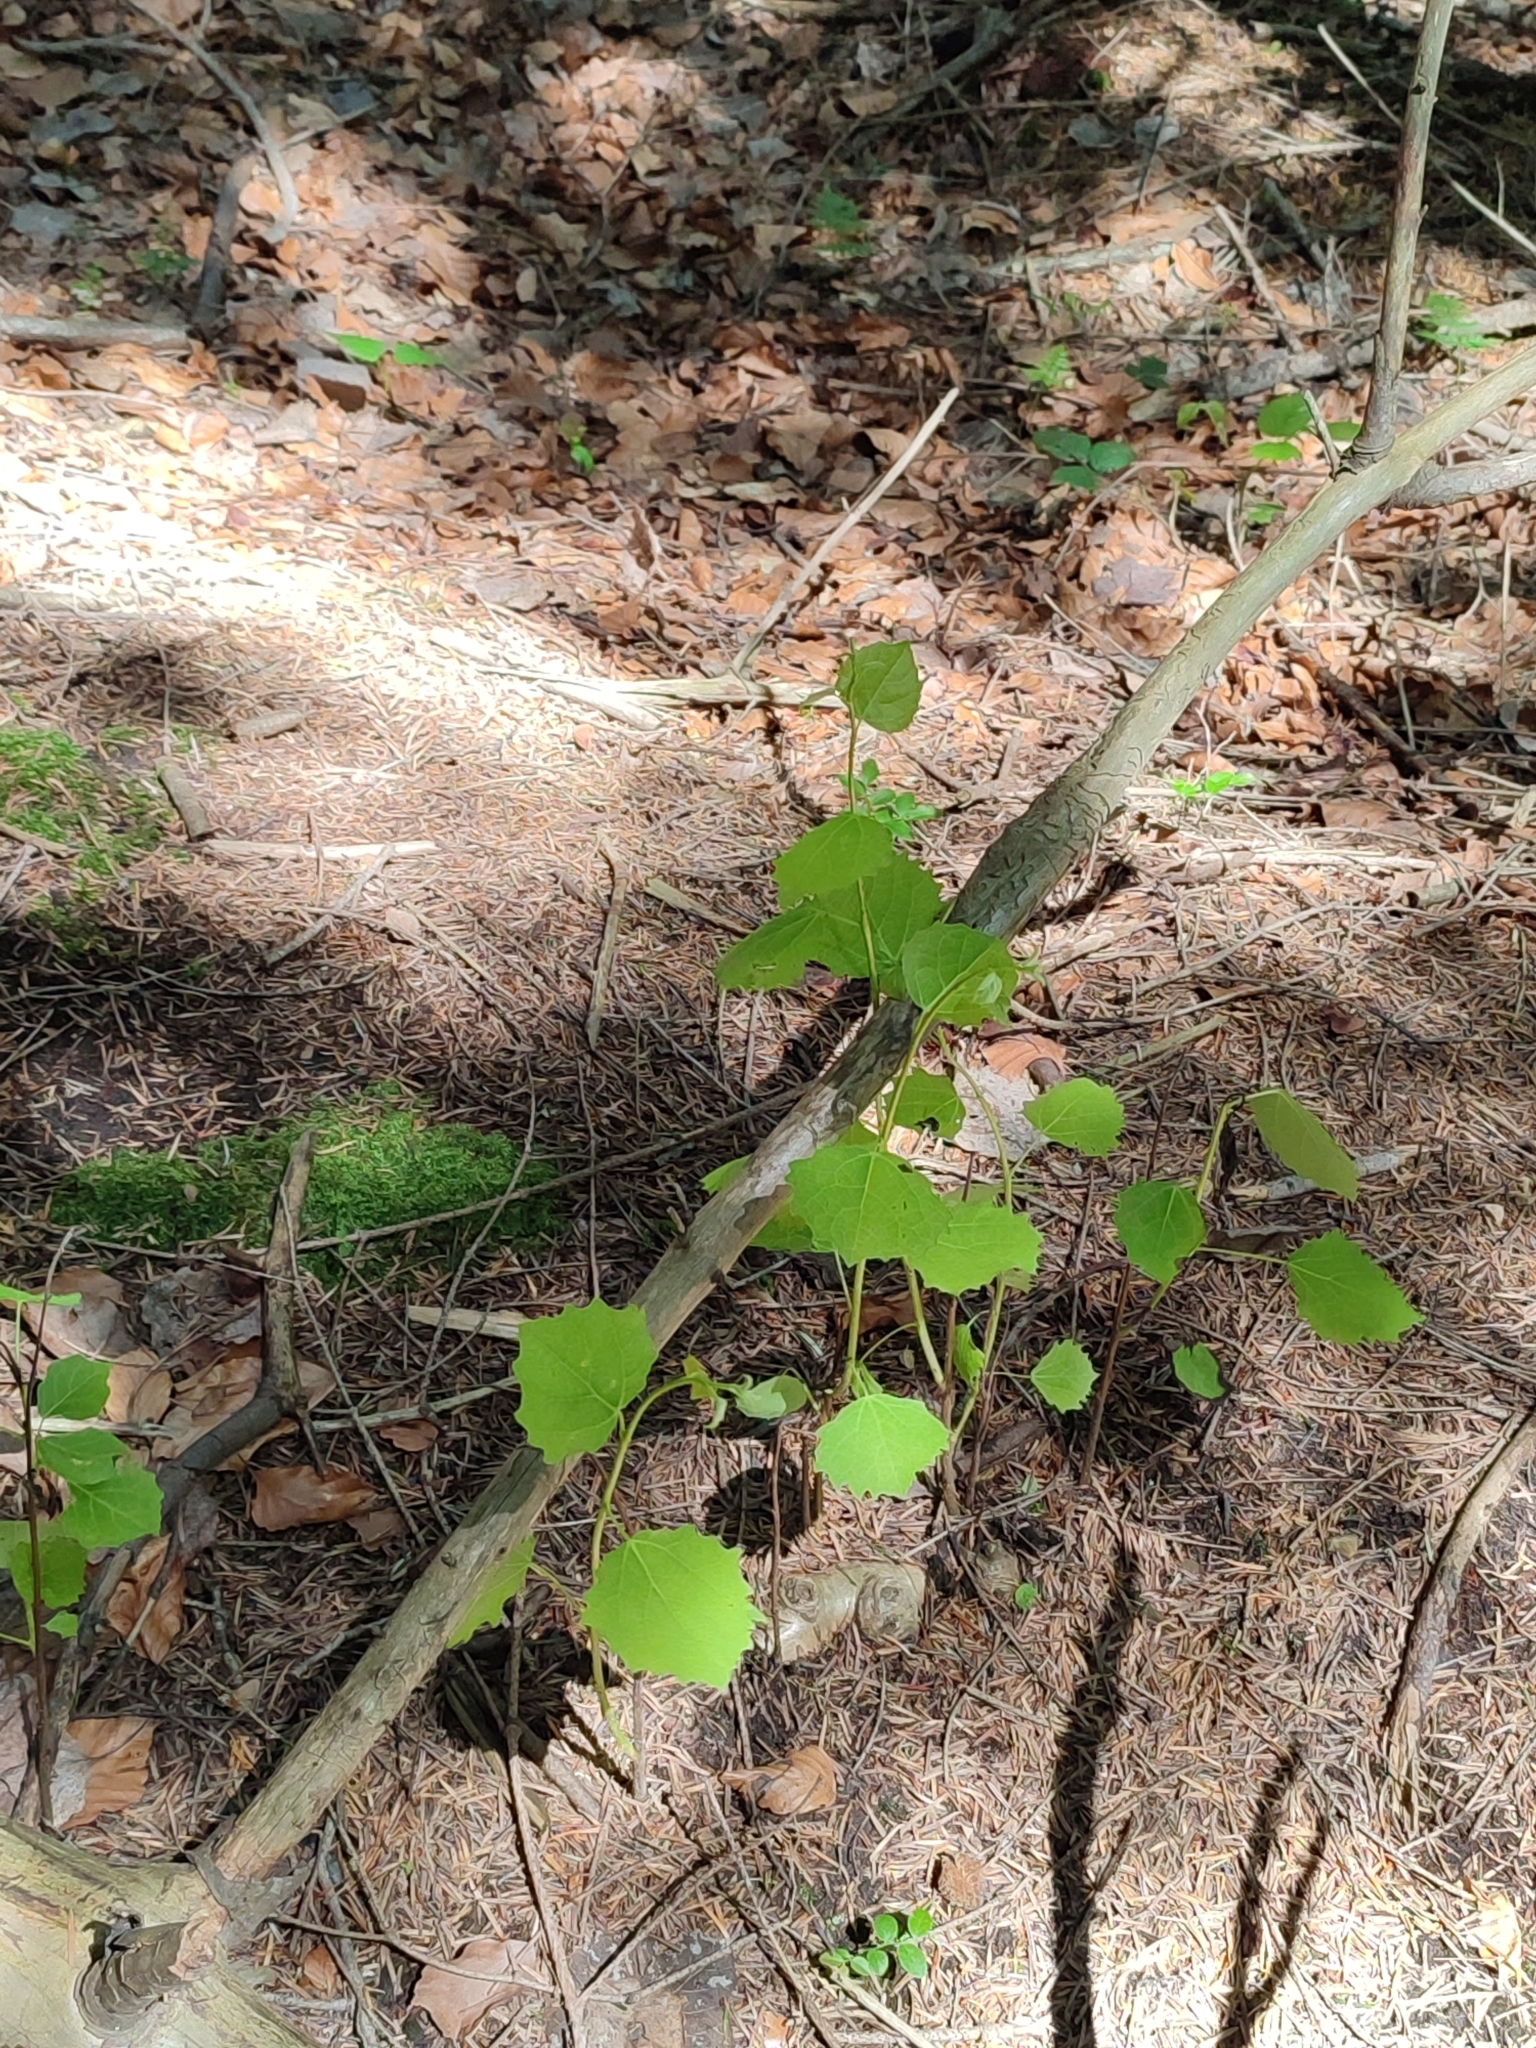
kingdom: Plantae
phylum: Tracheophyta
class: Magnoliopsida
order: Malpighiales
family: Salicaceae
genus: Populus
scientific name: Populus tremula
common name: European aspen
